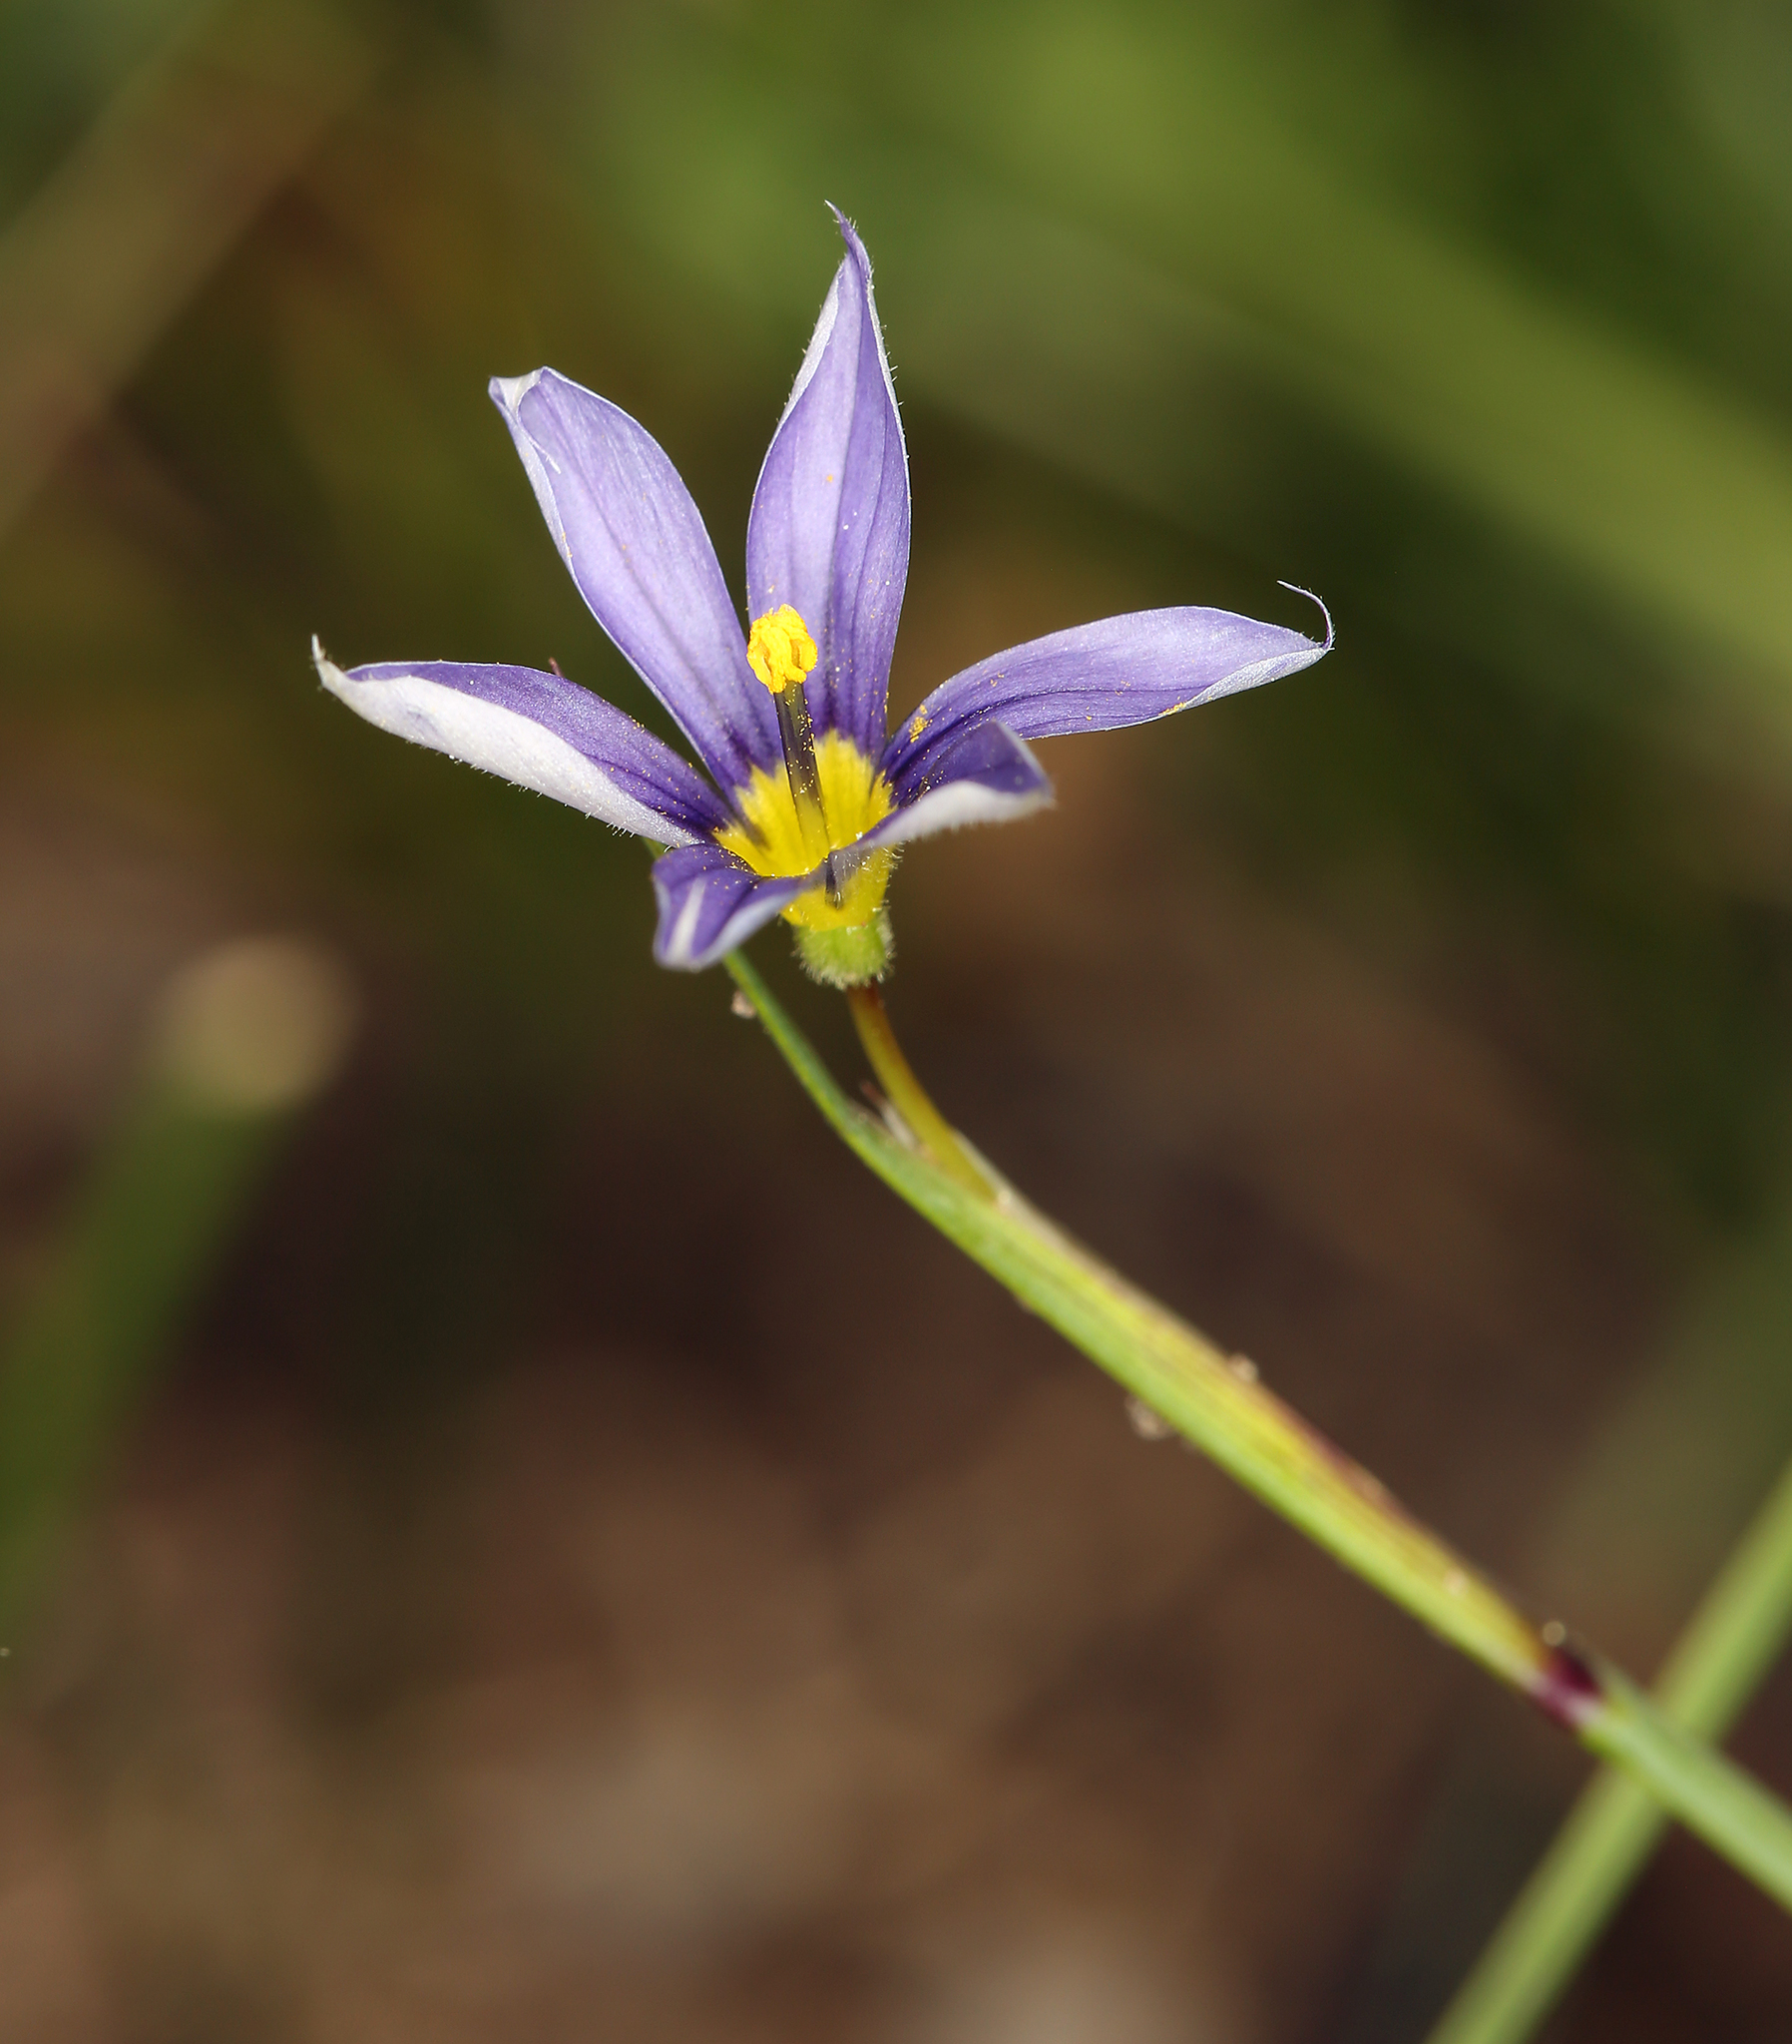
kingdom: Plantae
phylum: Tracheophyta
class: Liliopsida
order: Asparagales
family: Iridaceae
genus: Sisyrinchium
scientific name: Sisyrinchium idahoense
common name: Idaho blue-eyed-grass
